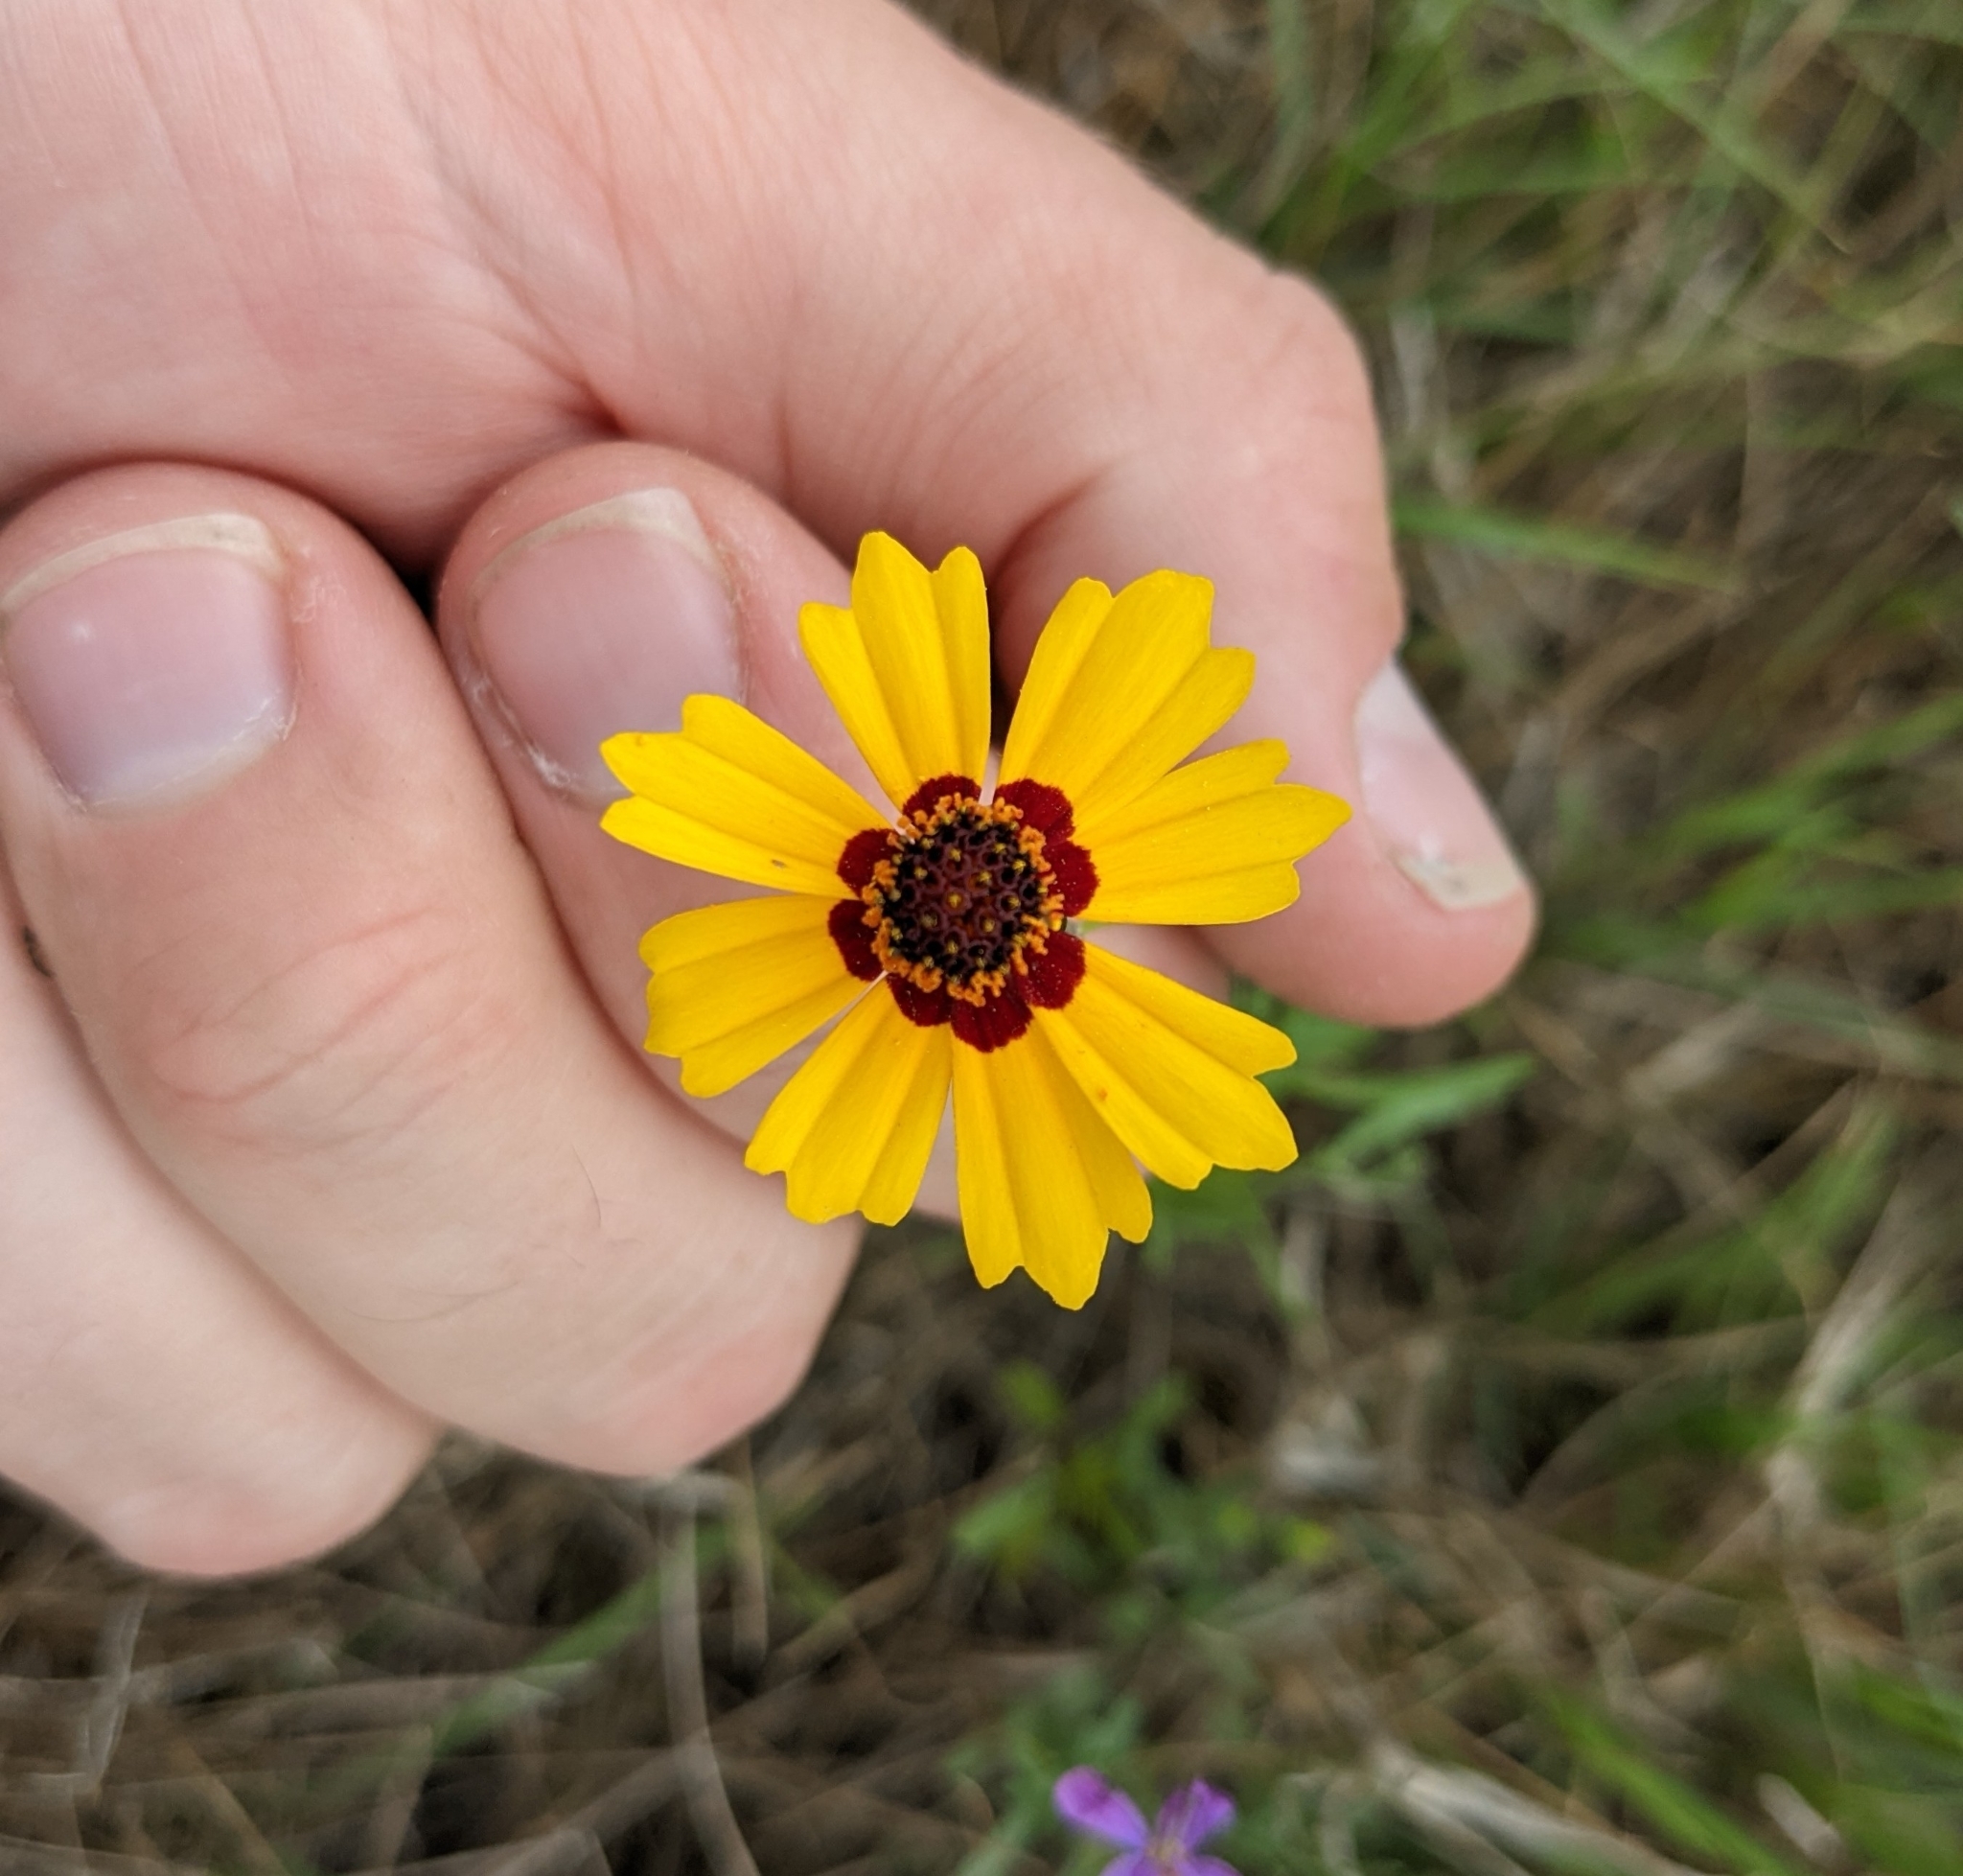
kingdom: Plantae
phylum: Tracheophyta
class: Magnoliopsida
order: Asterales
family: Asteraceae
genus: Coreopsis
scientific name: Coreopsis tinctoria
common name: Garden tickseed
